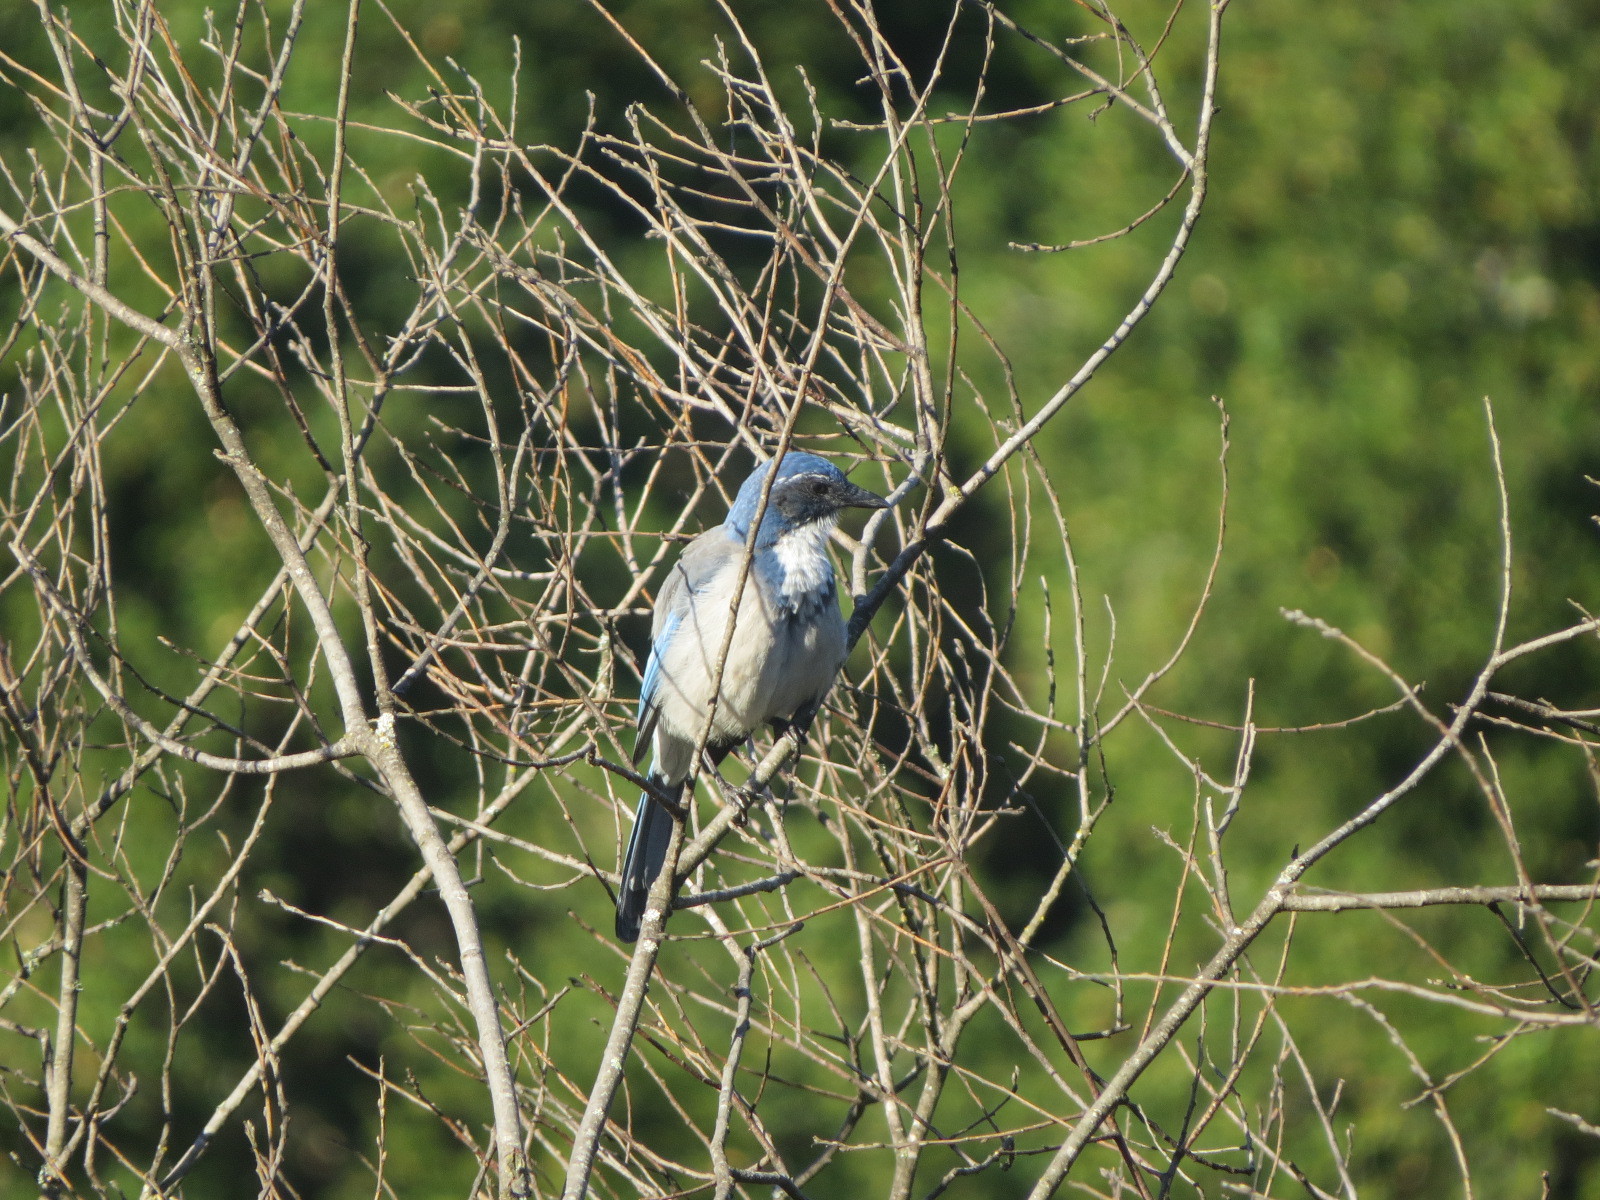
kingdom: Animalia
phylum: Chordata
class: Aves
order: Passeriformes
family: Corvidae
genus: Aphelocoma
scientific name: Aphelocoma californica
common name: California scrub-jay
